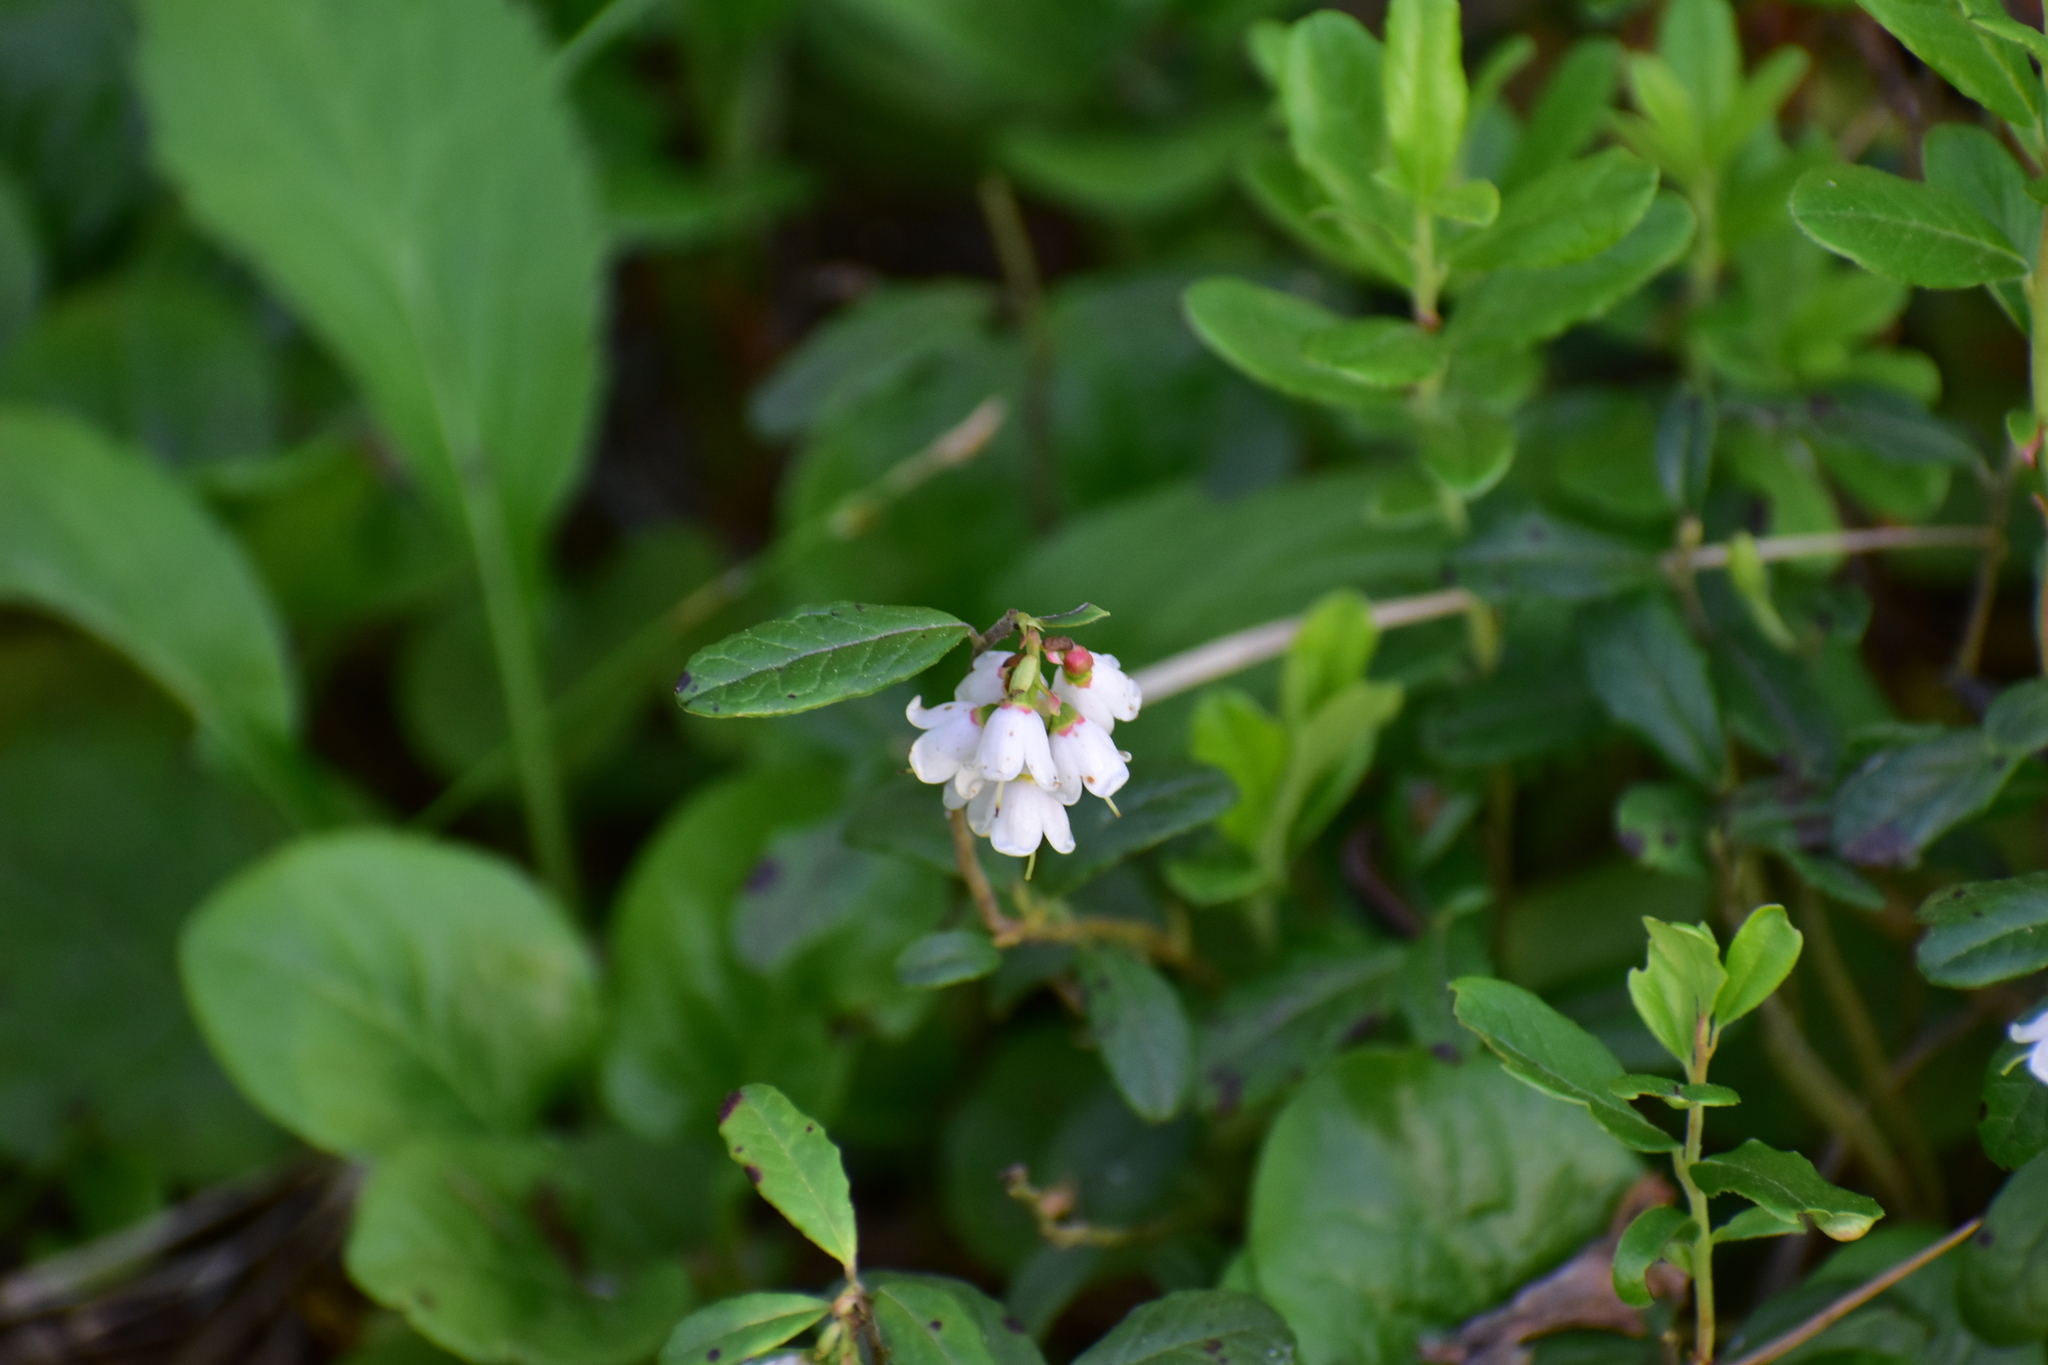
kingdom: Plantae
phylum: Tracheophyta
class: Magnoliopsida
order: Ericales
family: Ericaceae
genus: Vaccinium
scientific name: Vaccinium vitis-idaea
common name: Cowberry
